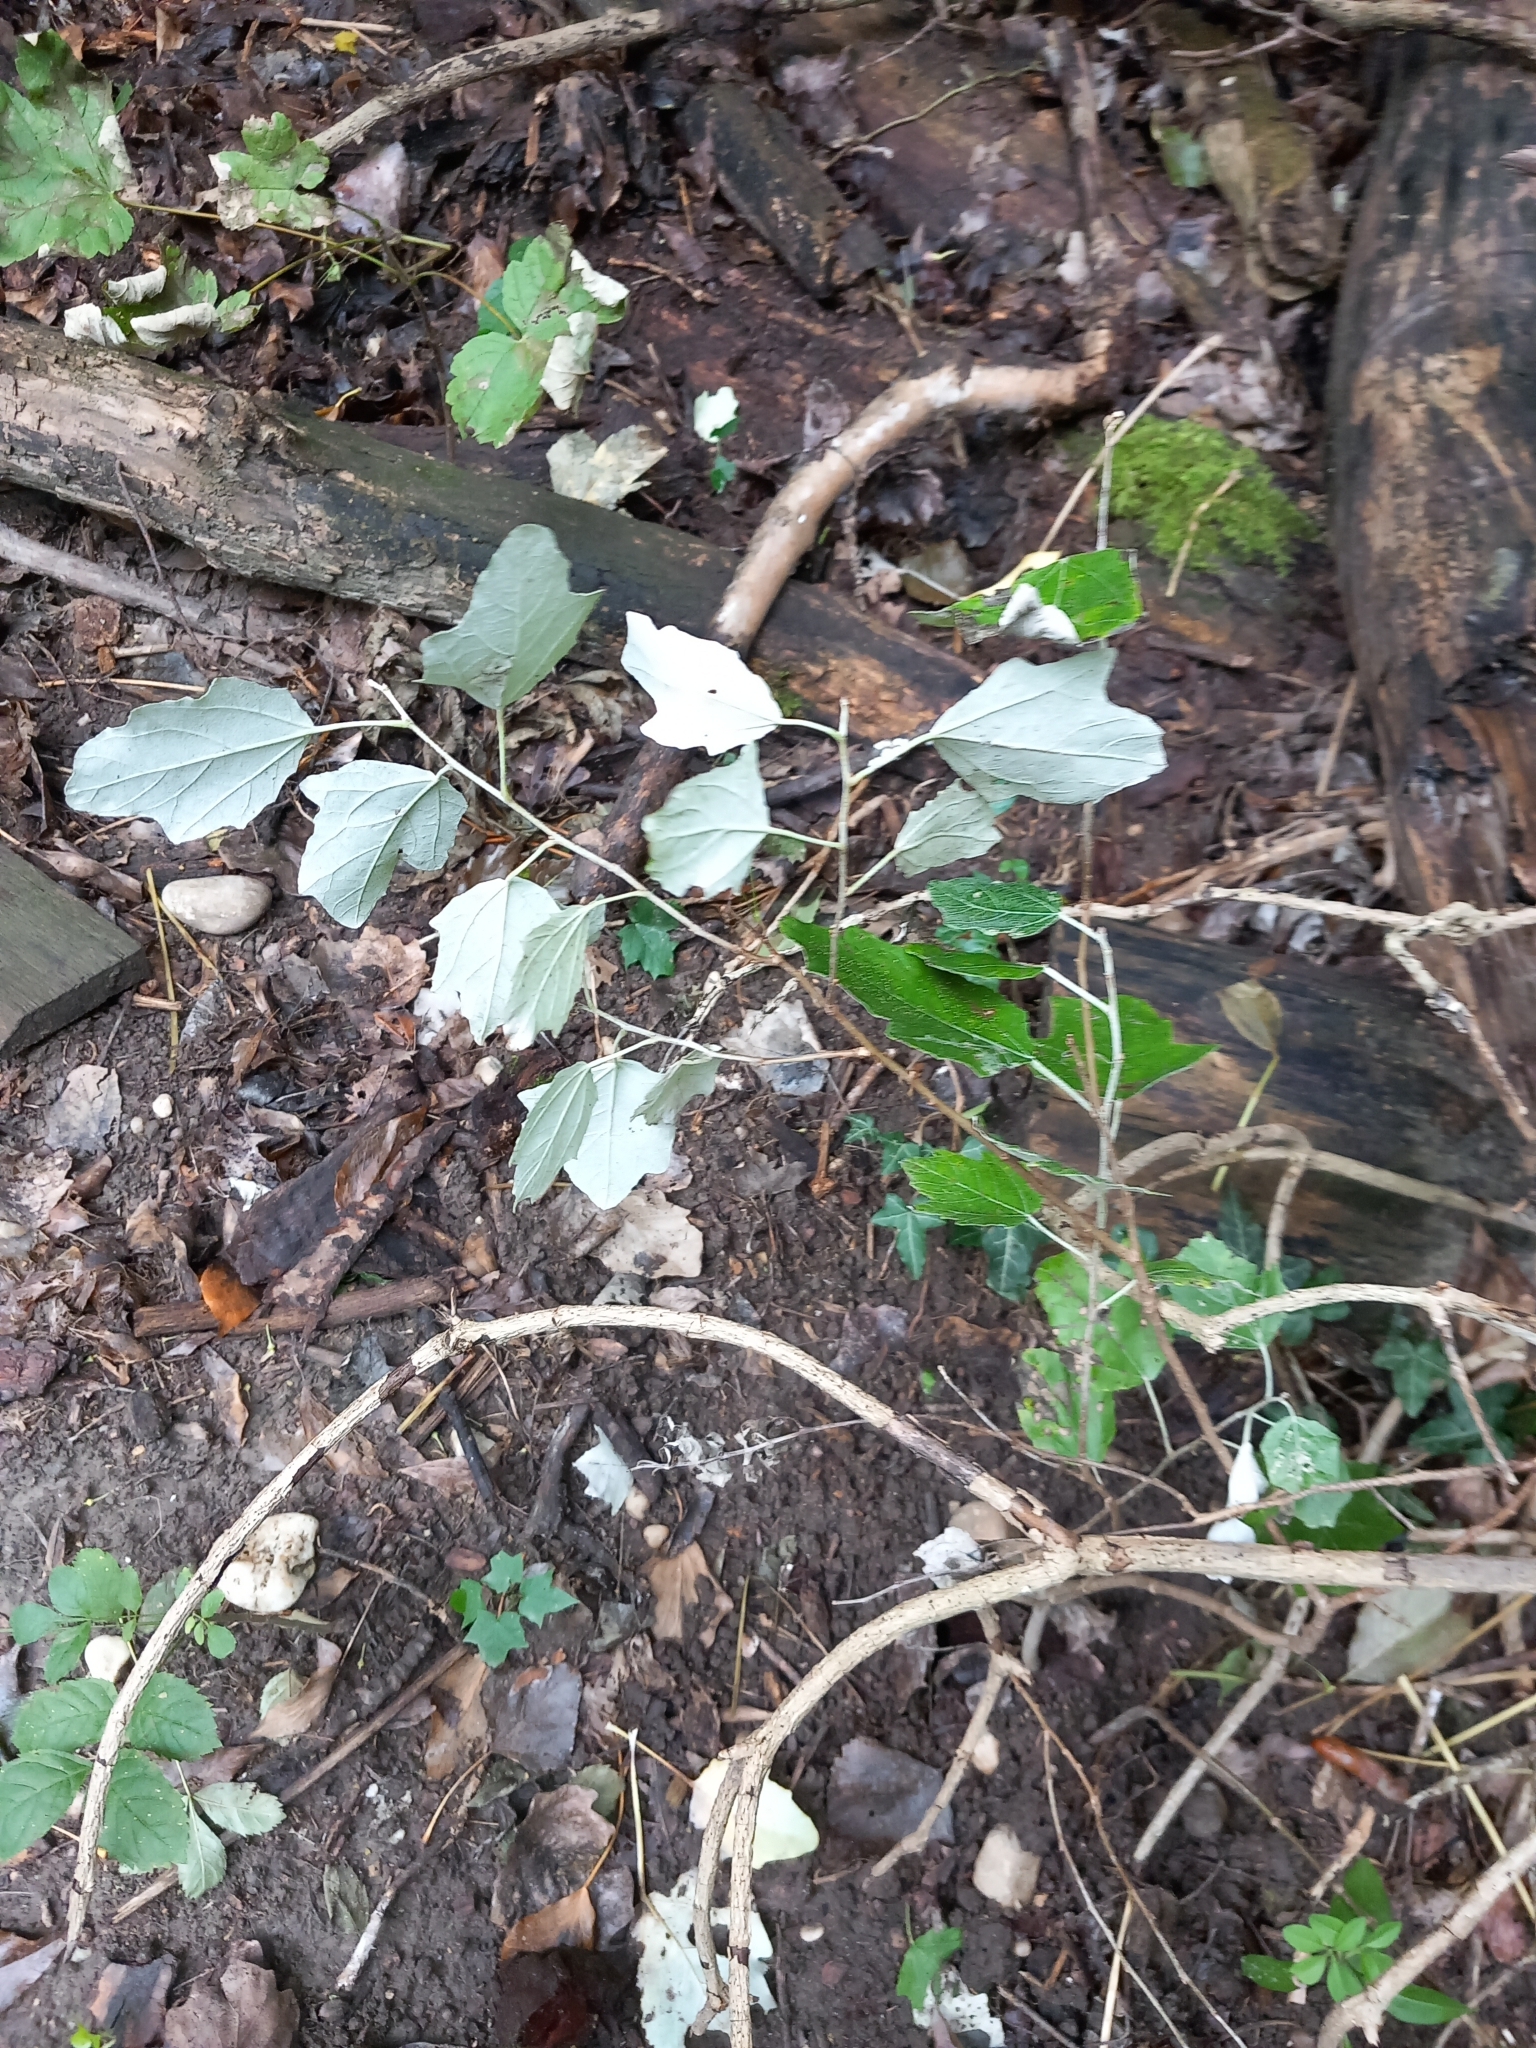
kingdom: Plantae
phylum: Tracheophyta
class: Magnoliopsida
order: Malpighiales
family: Salicaceae
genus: Populus
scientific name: Populus alba
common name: White poplar
